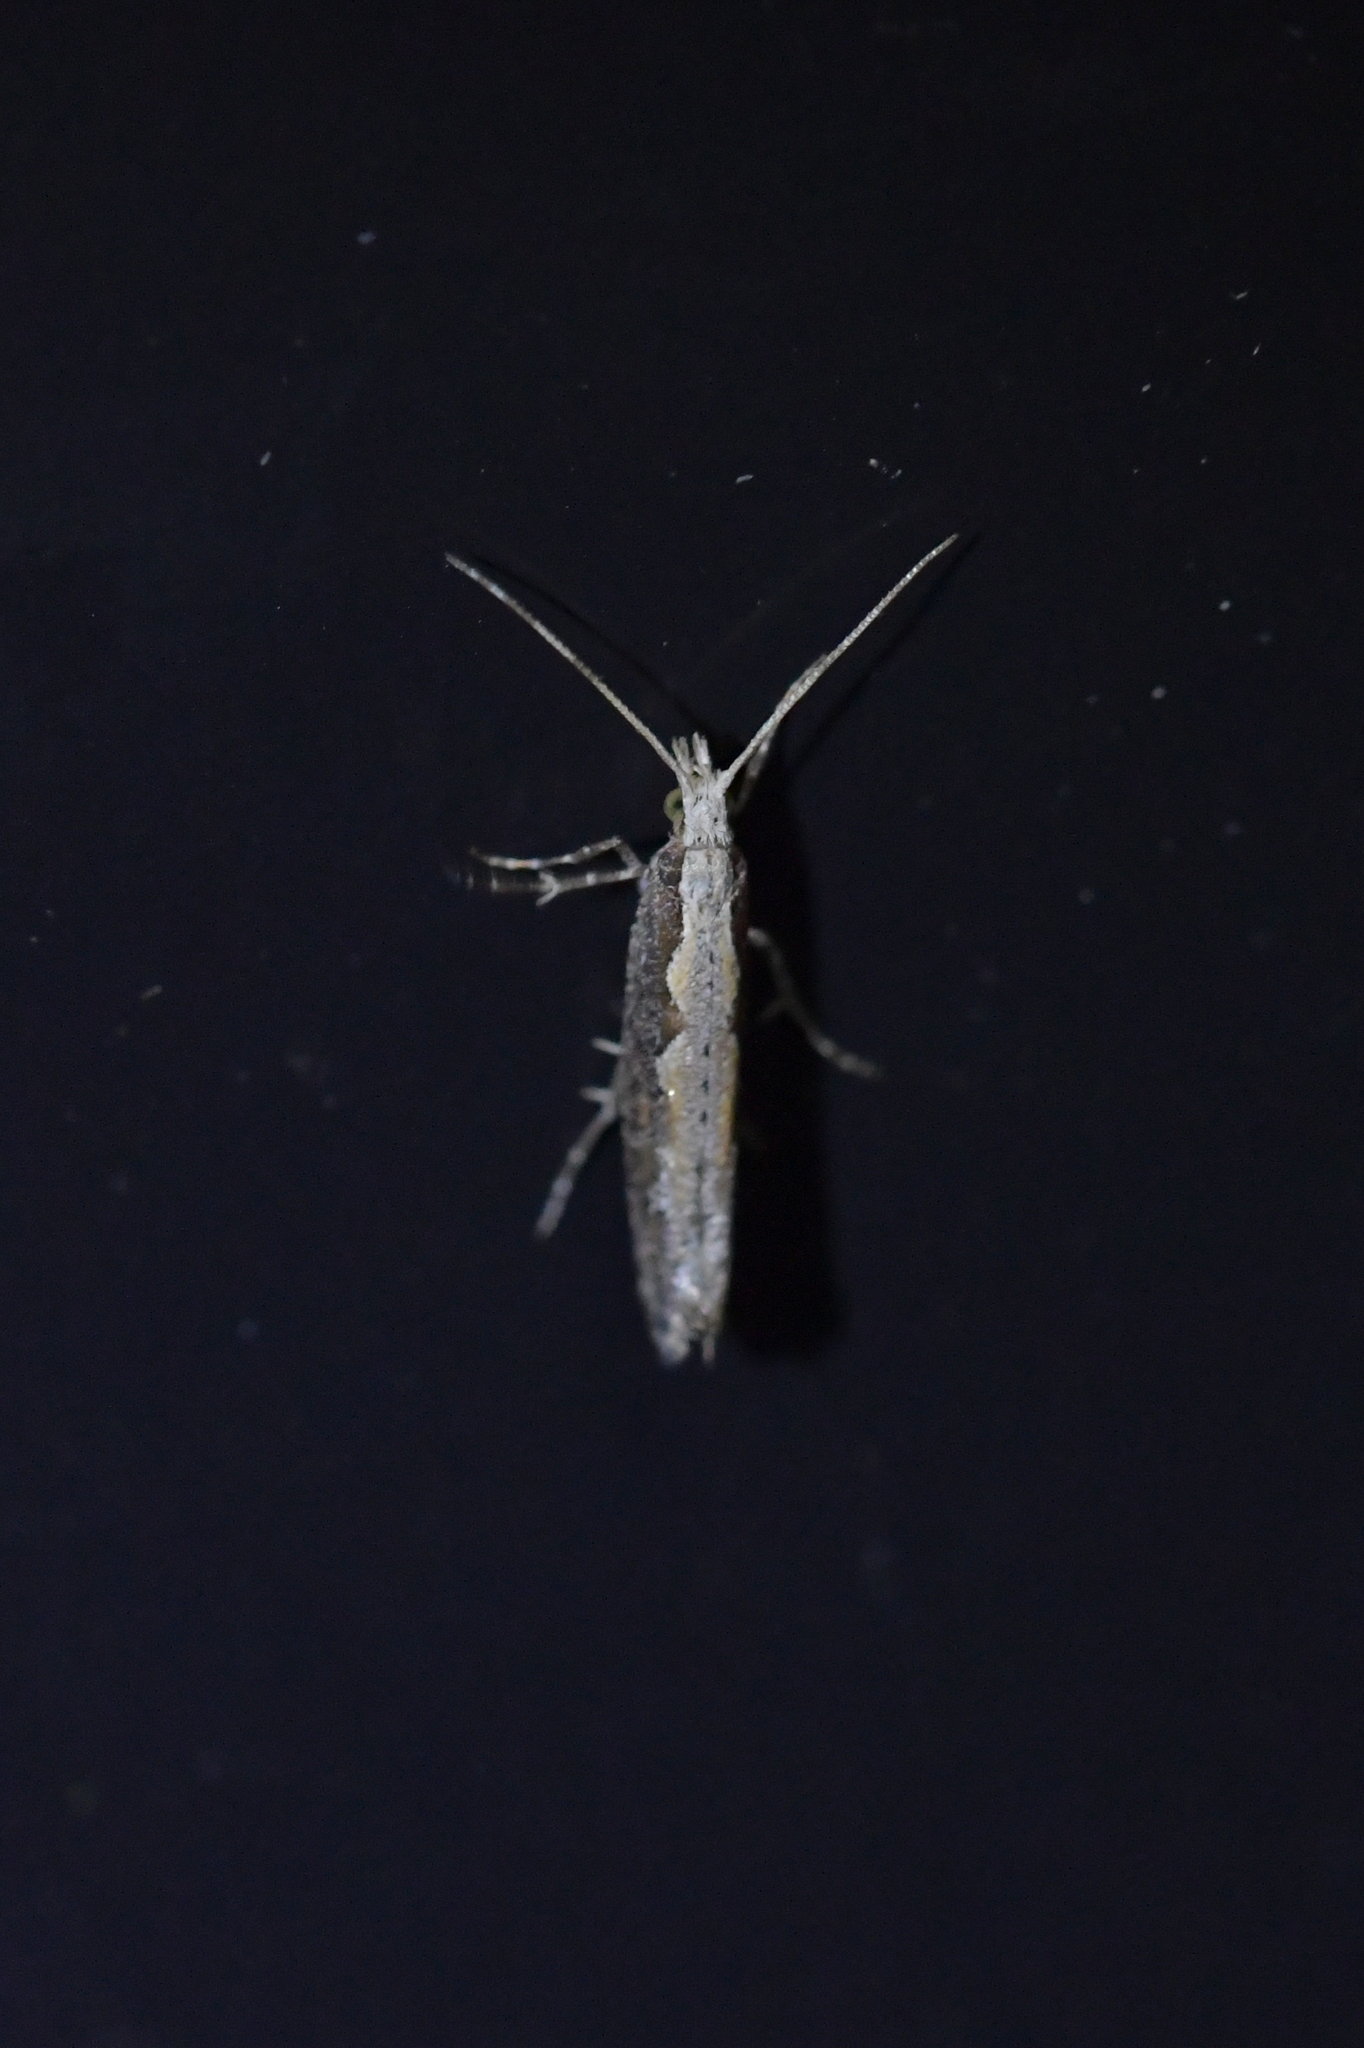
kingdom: Animalia
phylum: Arthropoda
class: Insecta
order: Lepidoptera
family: Plutellidae
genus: Plutella
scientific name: Plutella xylostella
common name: Diamond-back moth
